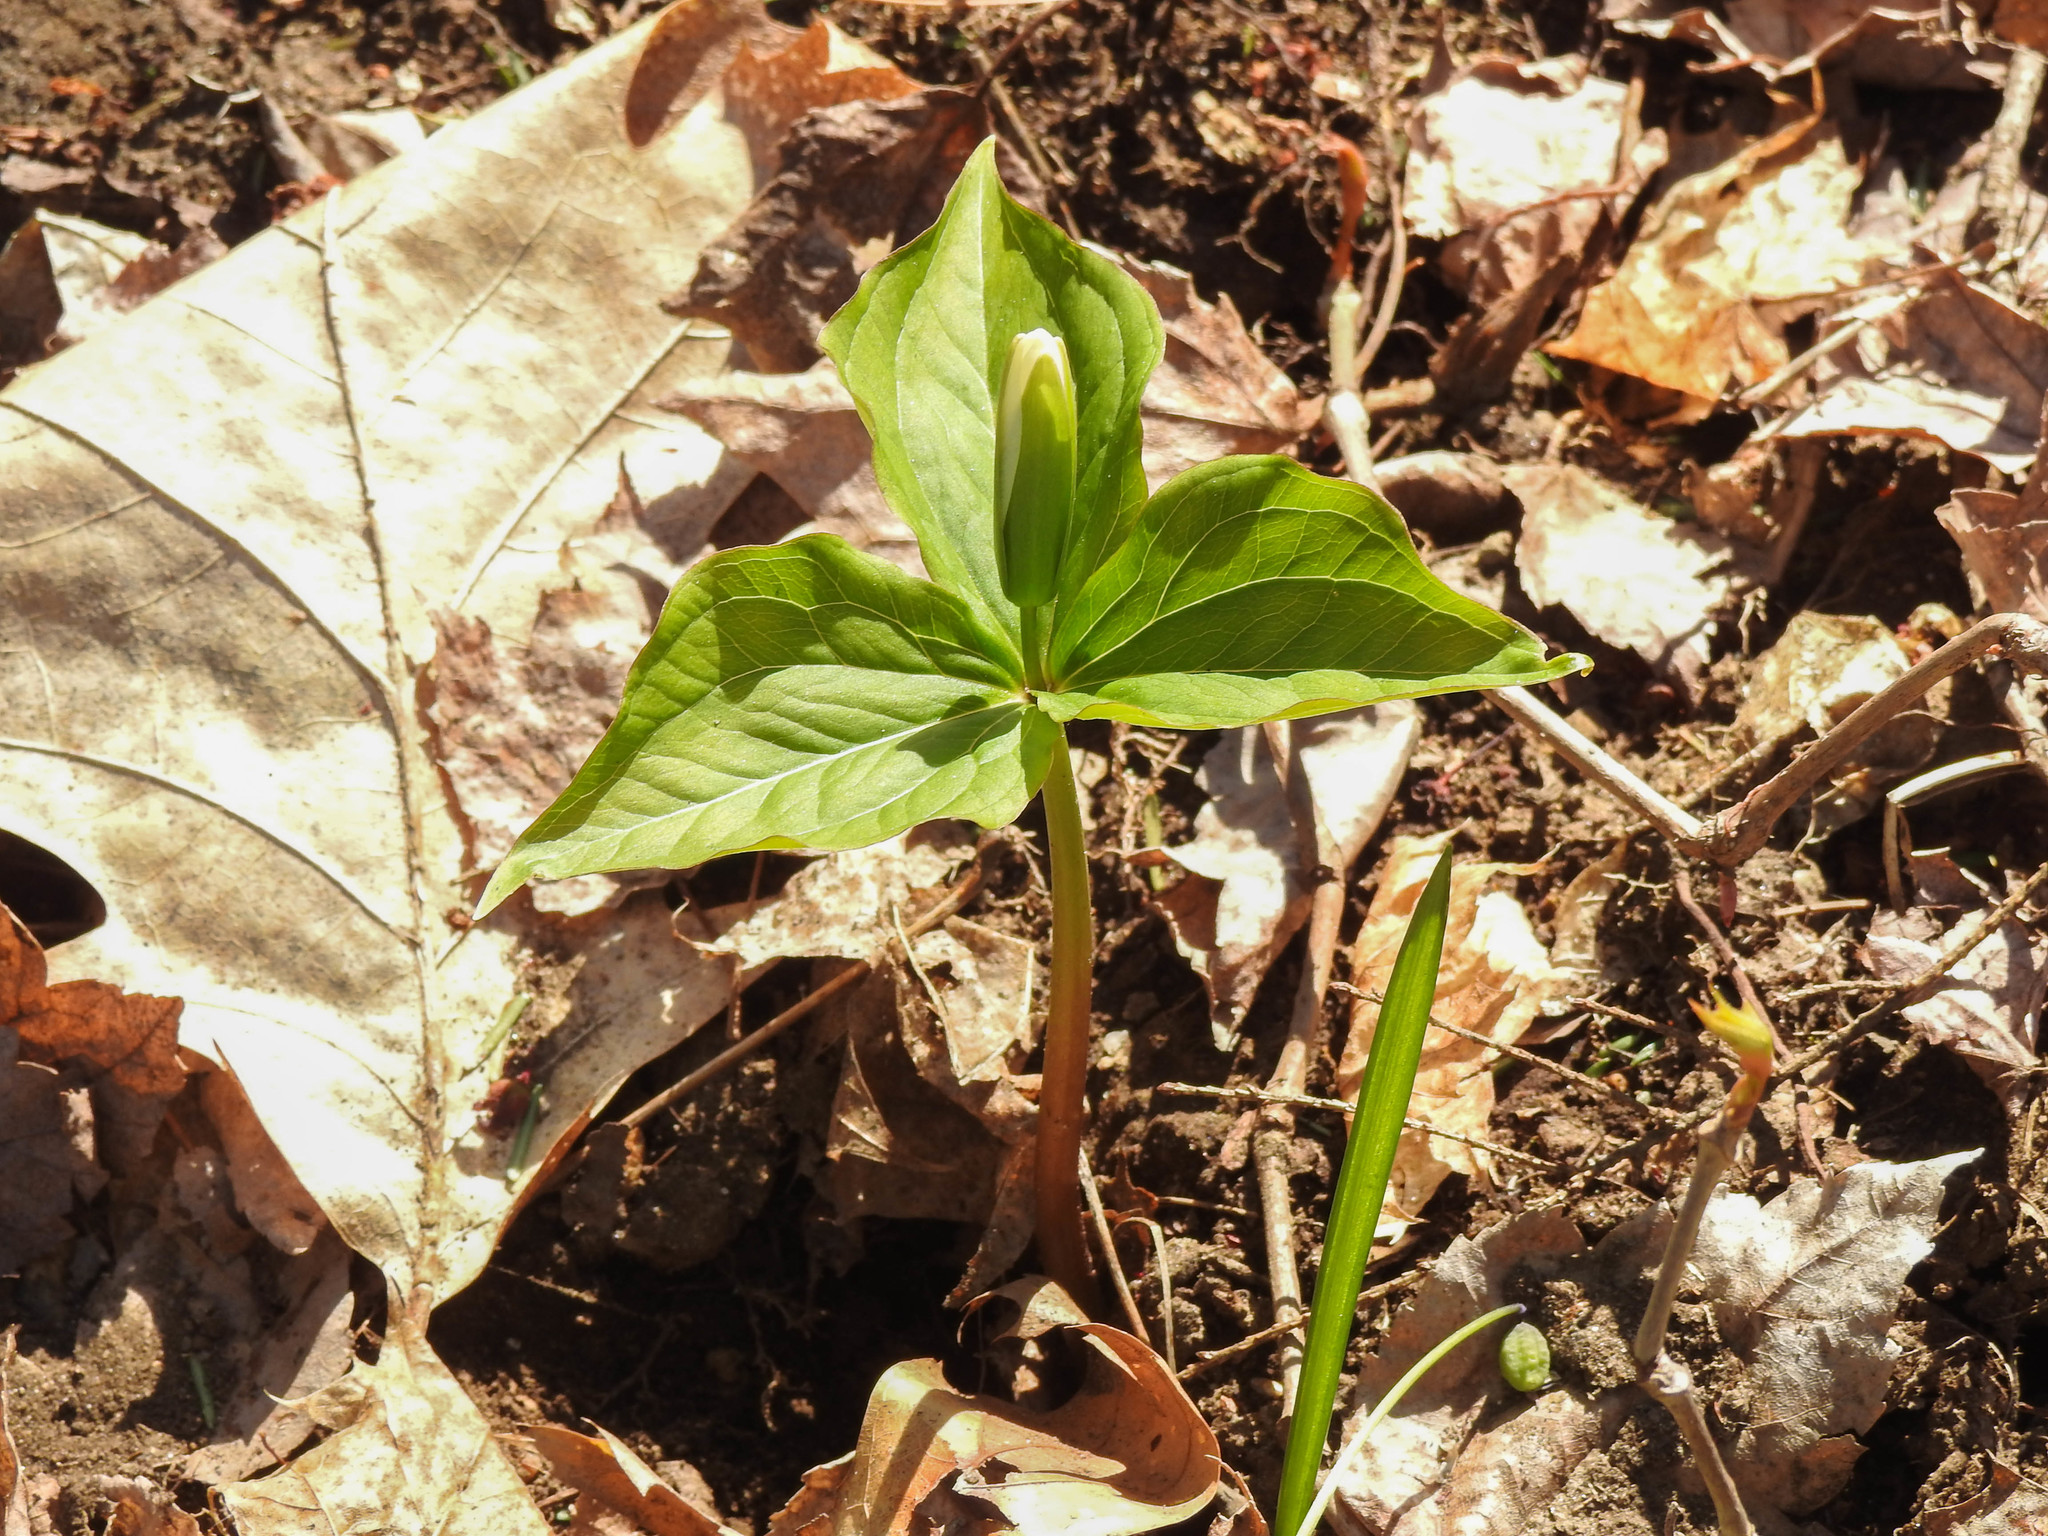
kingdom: Plantae
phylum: Tracheophyta
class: Liliopsida
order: Liliales
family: Melanthiaceae
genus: Trillium
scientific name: Trillium grandiflorum
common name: Great white trillium
